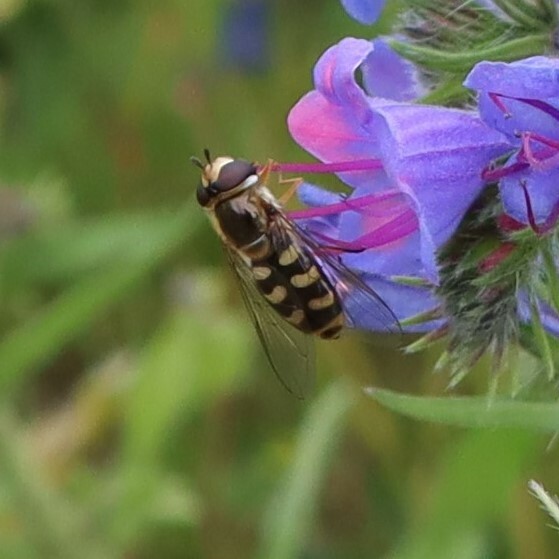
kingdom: Animalia
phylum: Arthropoda
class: Insecta
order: Diptera
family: Syrphidae
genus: Eupeodes
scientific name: Eupeodes
